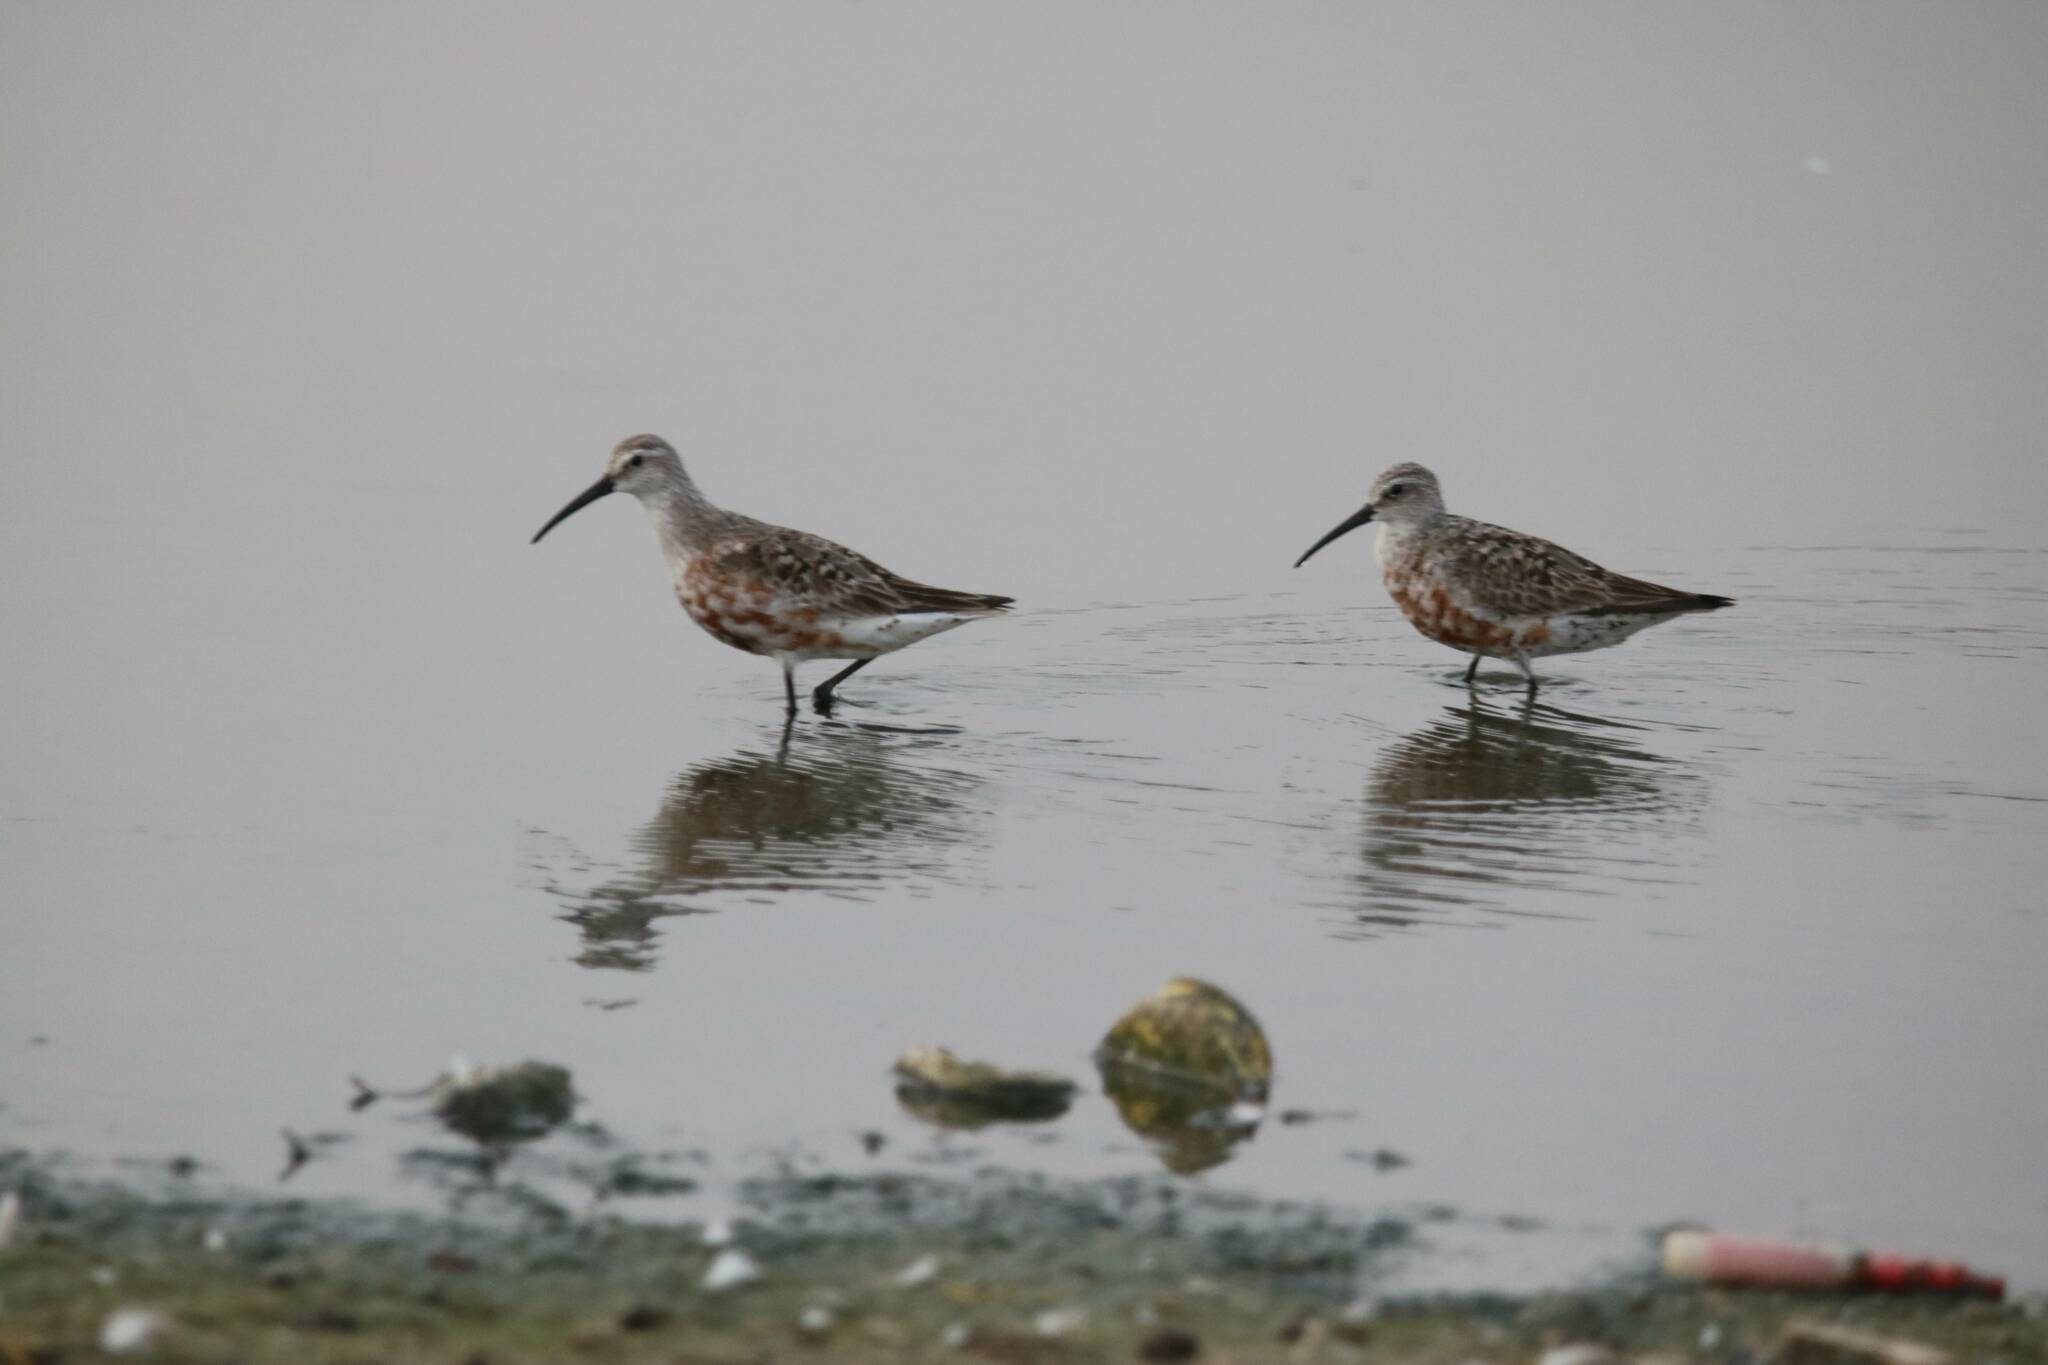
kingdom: Animalia
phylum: Chordata
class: Aves
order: Charadriiformes
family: Scolopacidae
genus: Calidris
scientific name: Calidris ferruginea
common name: Curlew sandpiper
